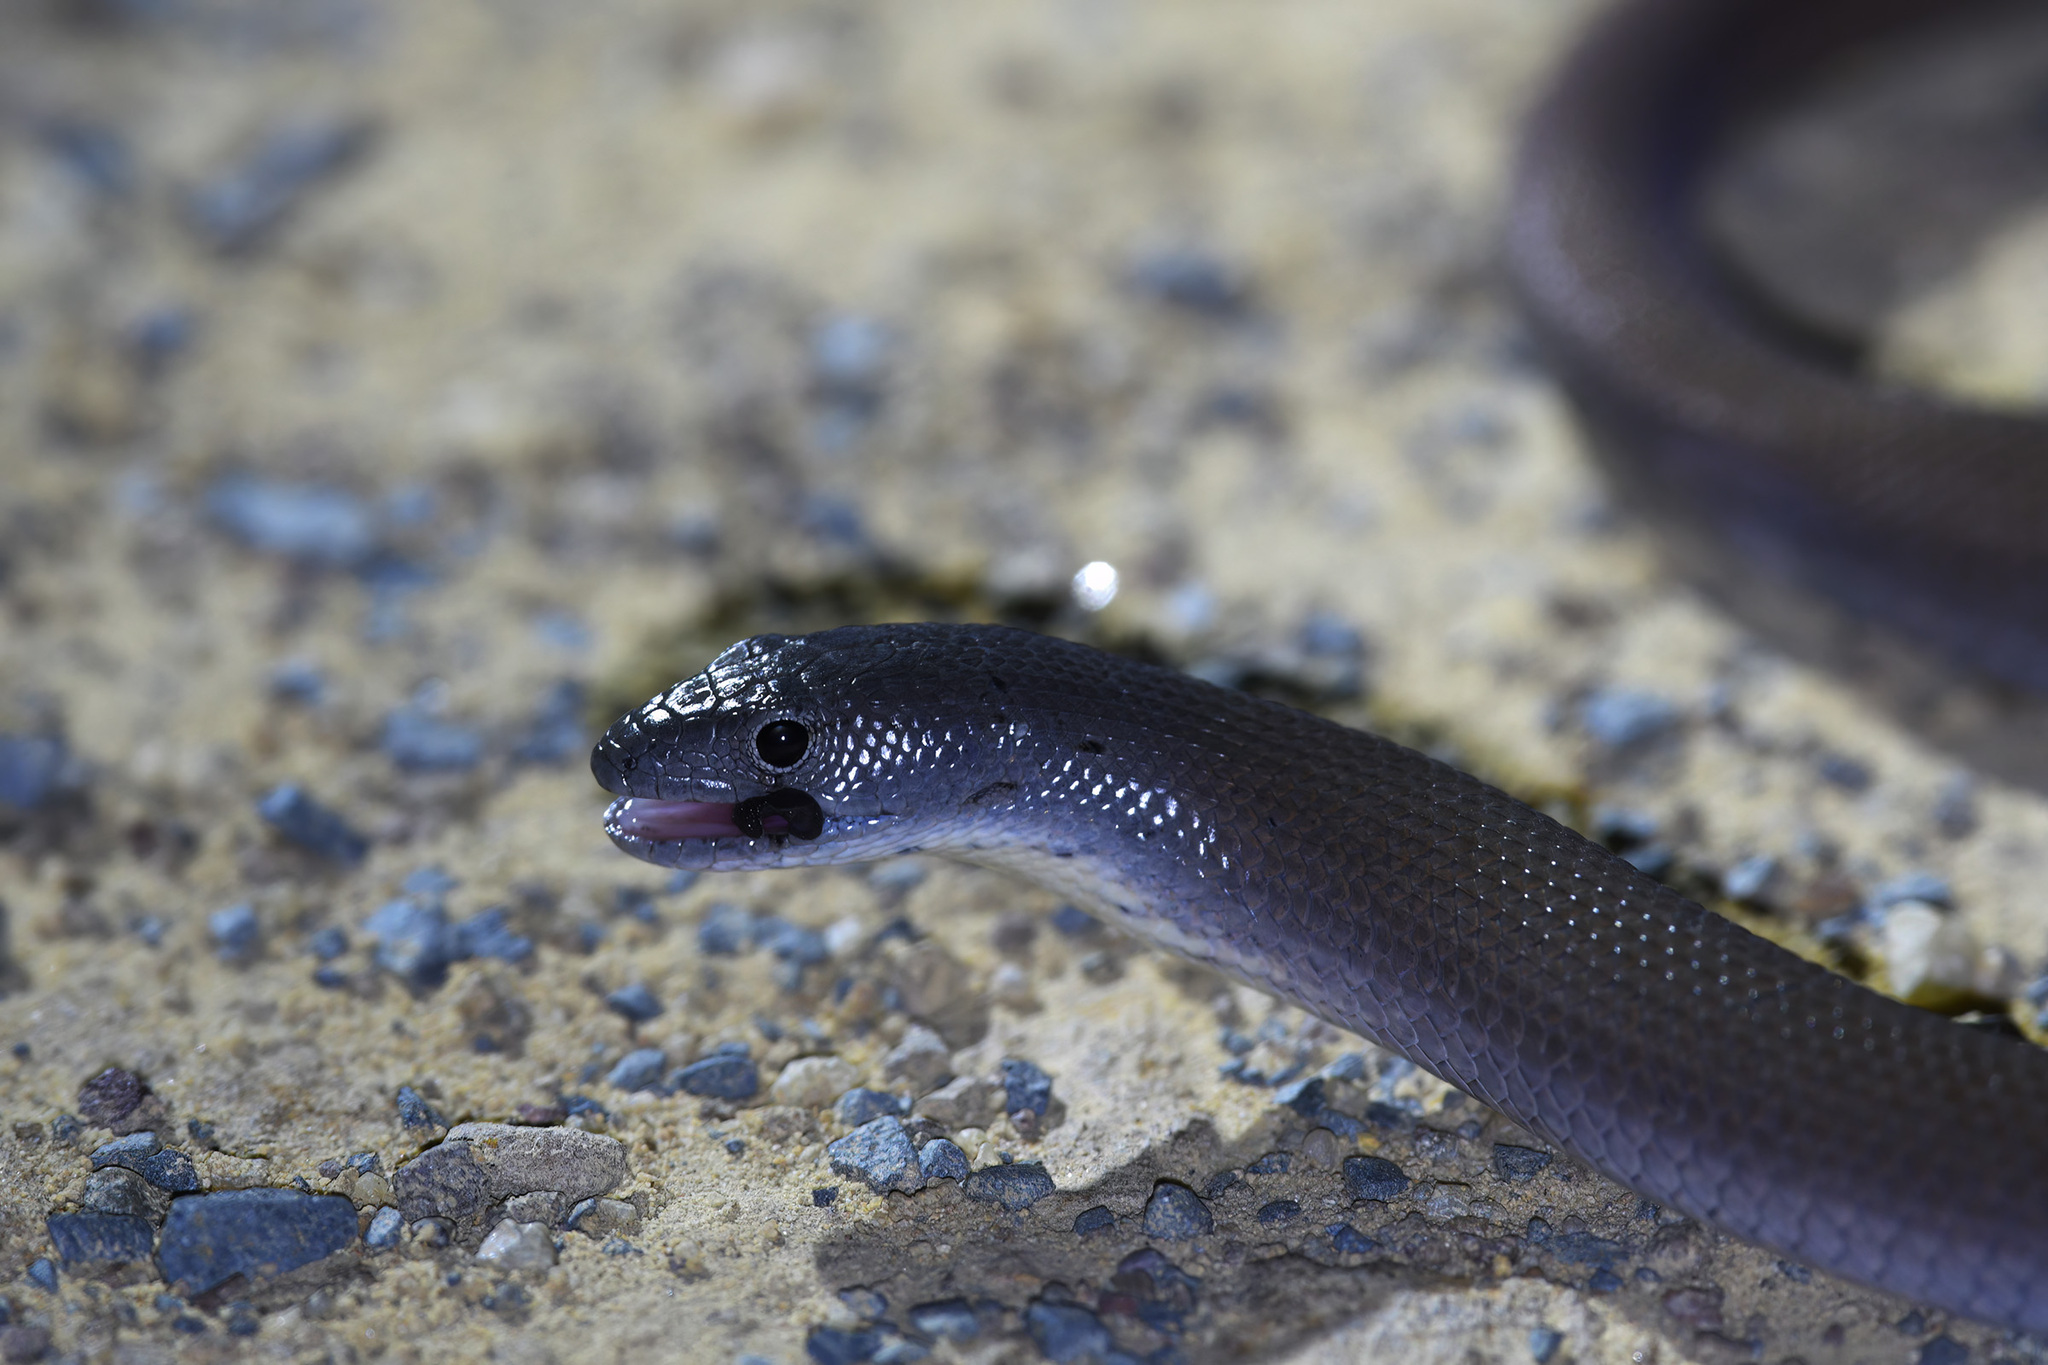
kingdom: Animalia
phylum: Chordata
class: Squamata
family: Pygopodidae
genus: Pygopus
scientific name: Pygopus lepidopodus
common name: Southern scaly-foot
